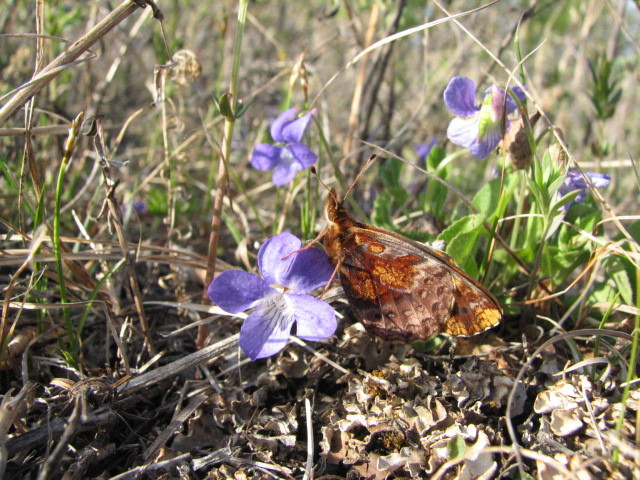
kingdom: Animalia
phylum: Arthropoda
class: Insecta
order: Lepidoptera
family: Nymphalidae
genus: Clossiana
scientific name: Clossiana toddi
